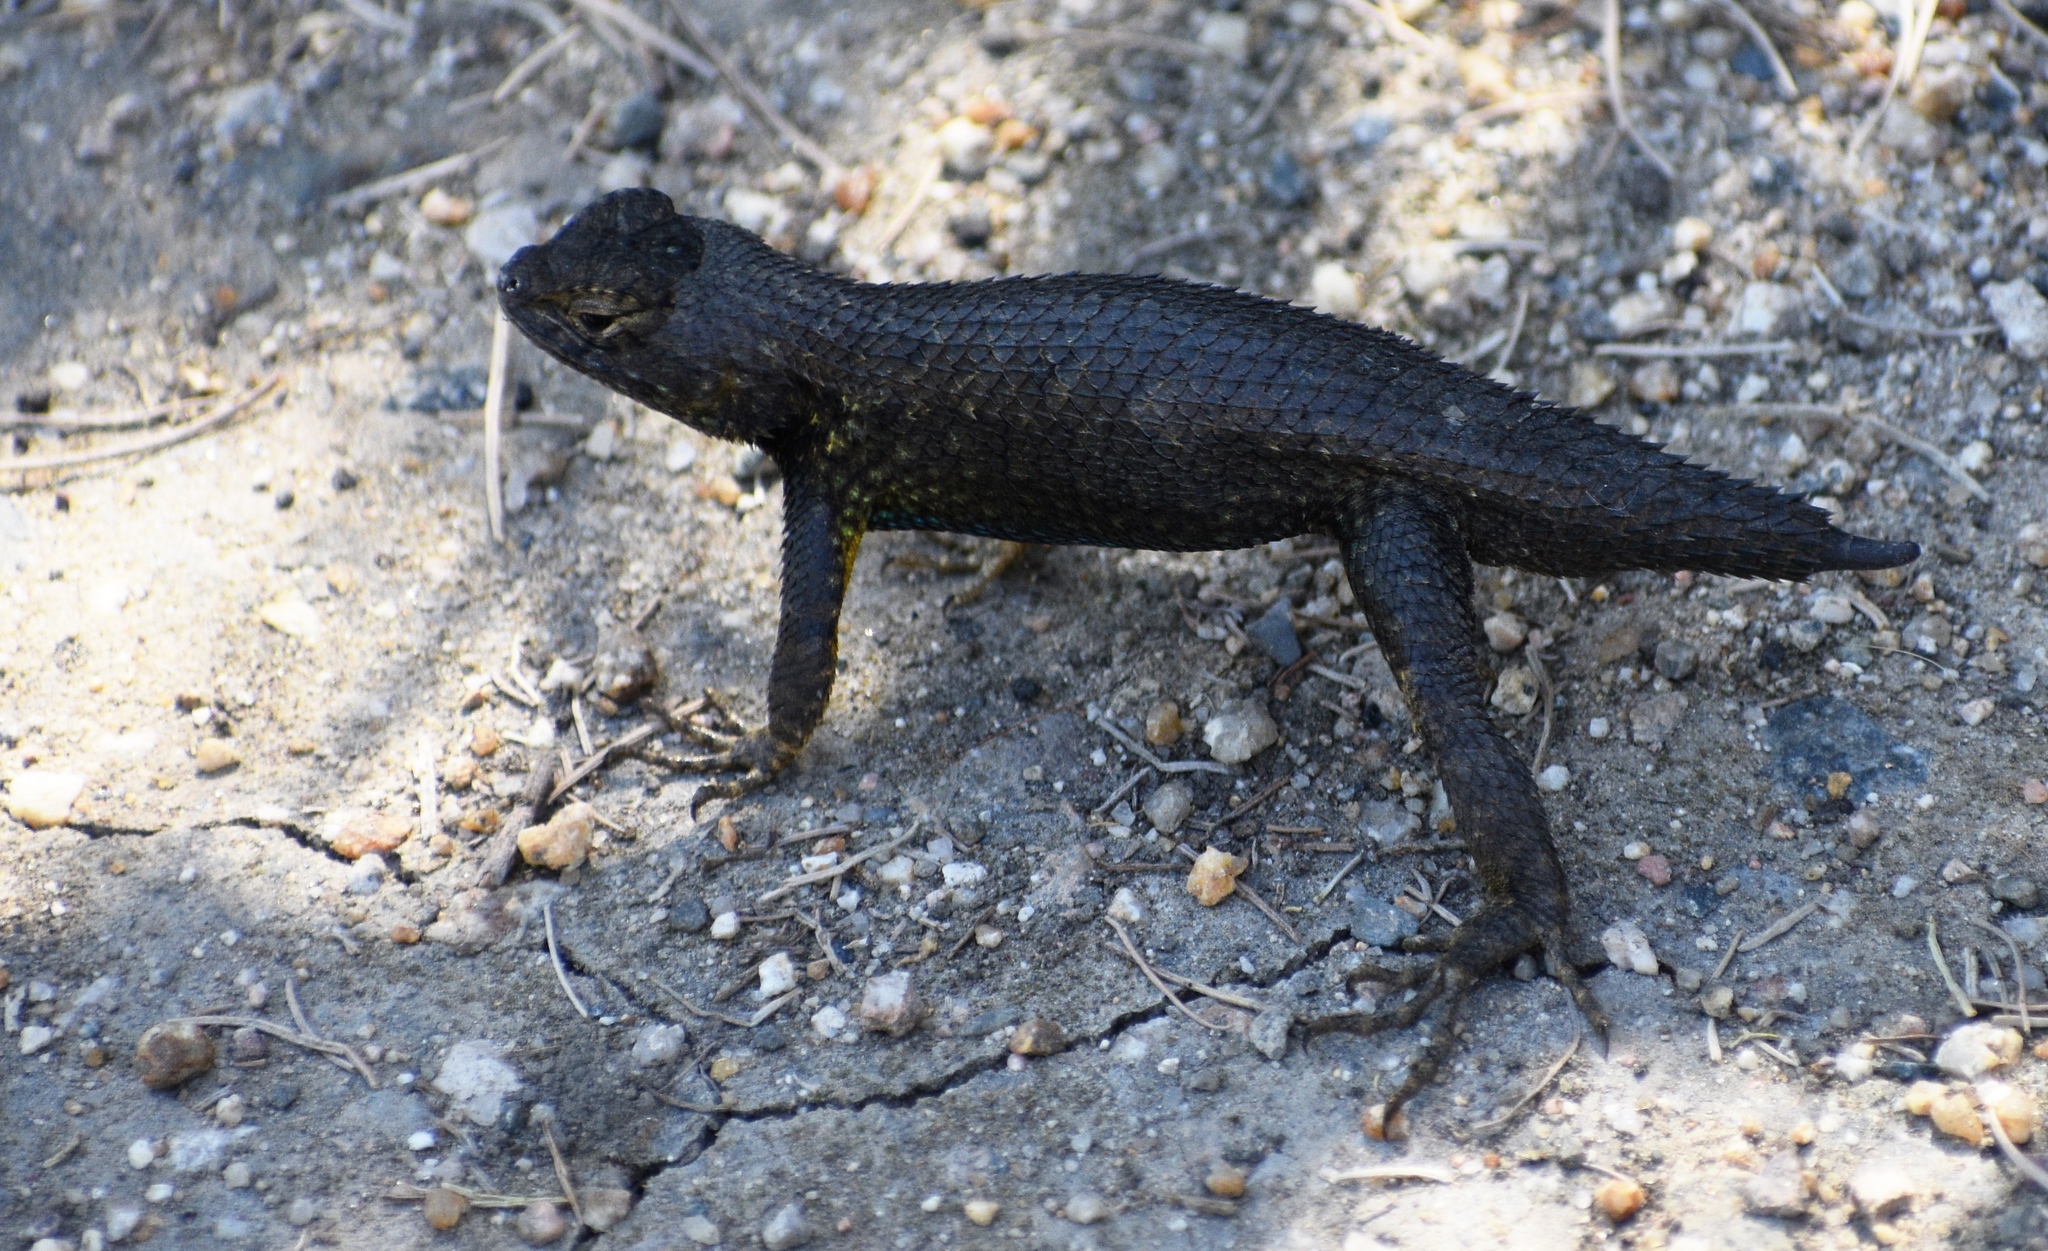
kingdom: Animalia
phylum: Chordata
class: Squamata
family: Phrynosomatidae
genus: Sceloporus
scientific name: Sceloporus occidentalis
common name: Western fence lizard
